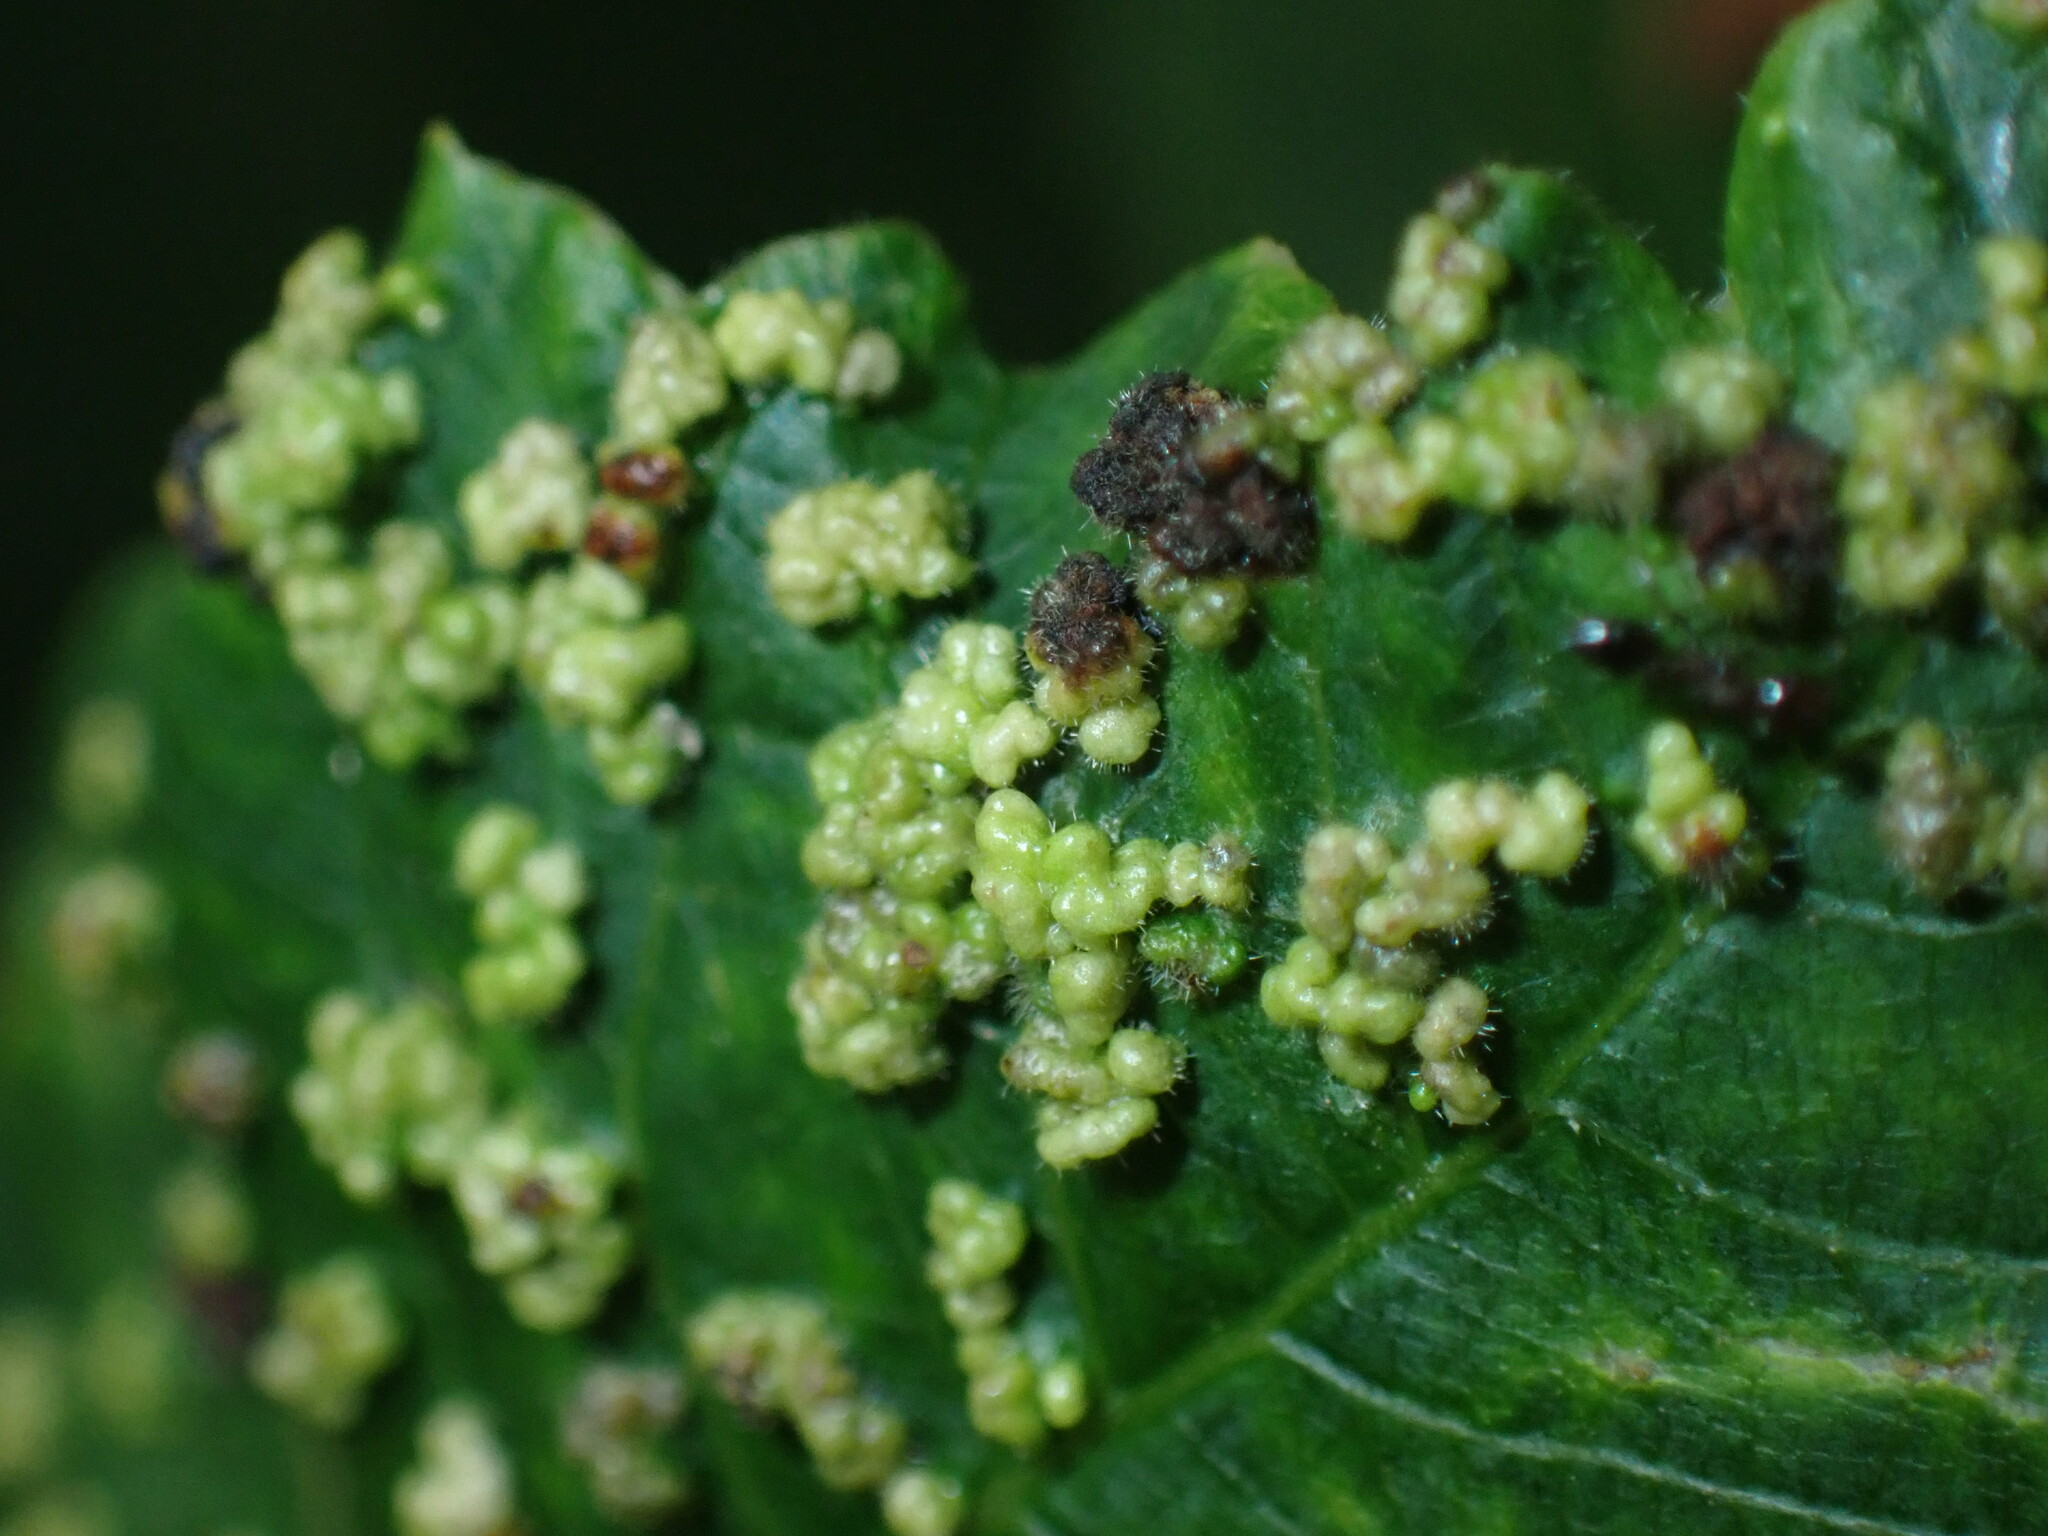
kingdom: Animalia
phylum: Arthropoda
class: Arachnida
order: Trombidiformes
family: Eriophyidae
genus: Aculops
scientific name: Aculops
